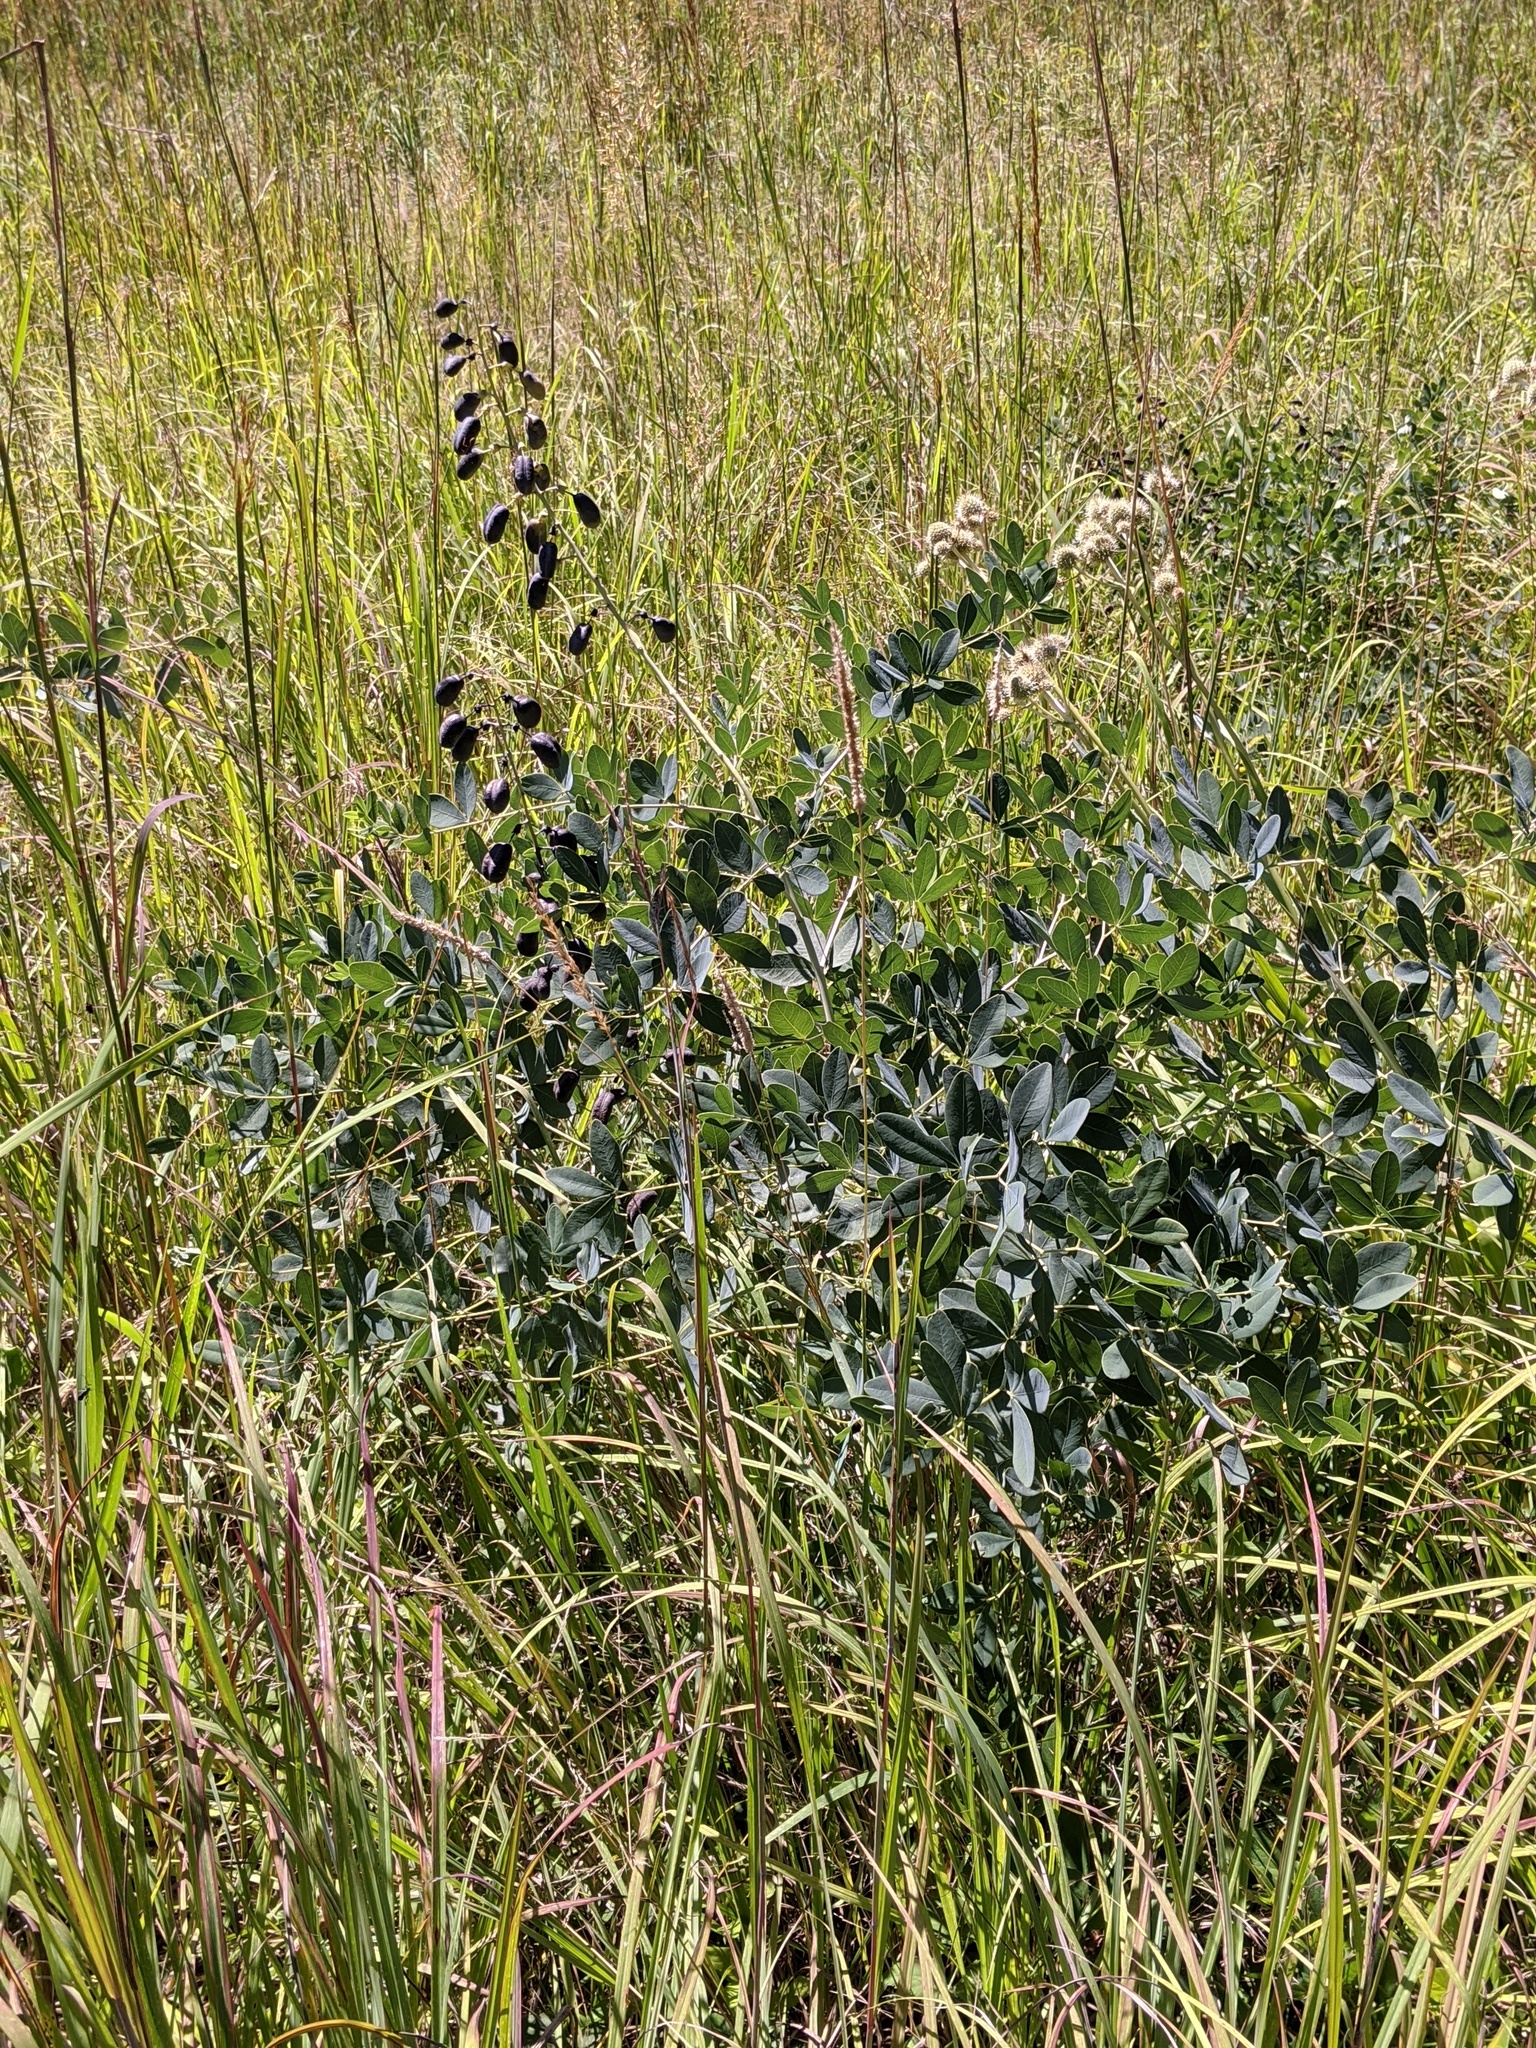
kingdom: Plantae
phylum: Tracheophyta
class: Magnoliopsida
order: Fabales
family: Fabaceae
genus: Baptisia
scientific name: Baptisia alba
